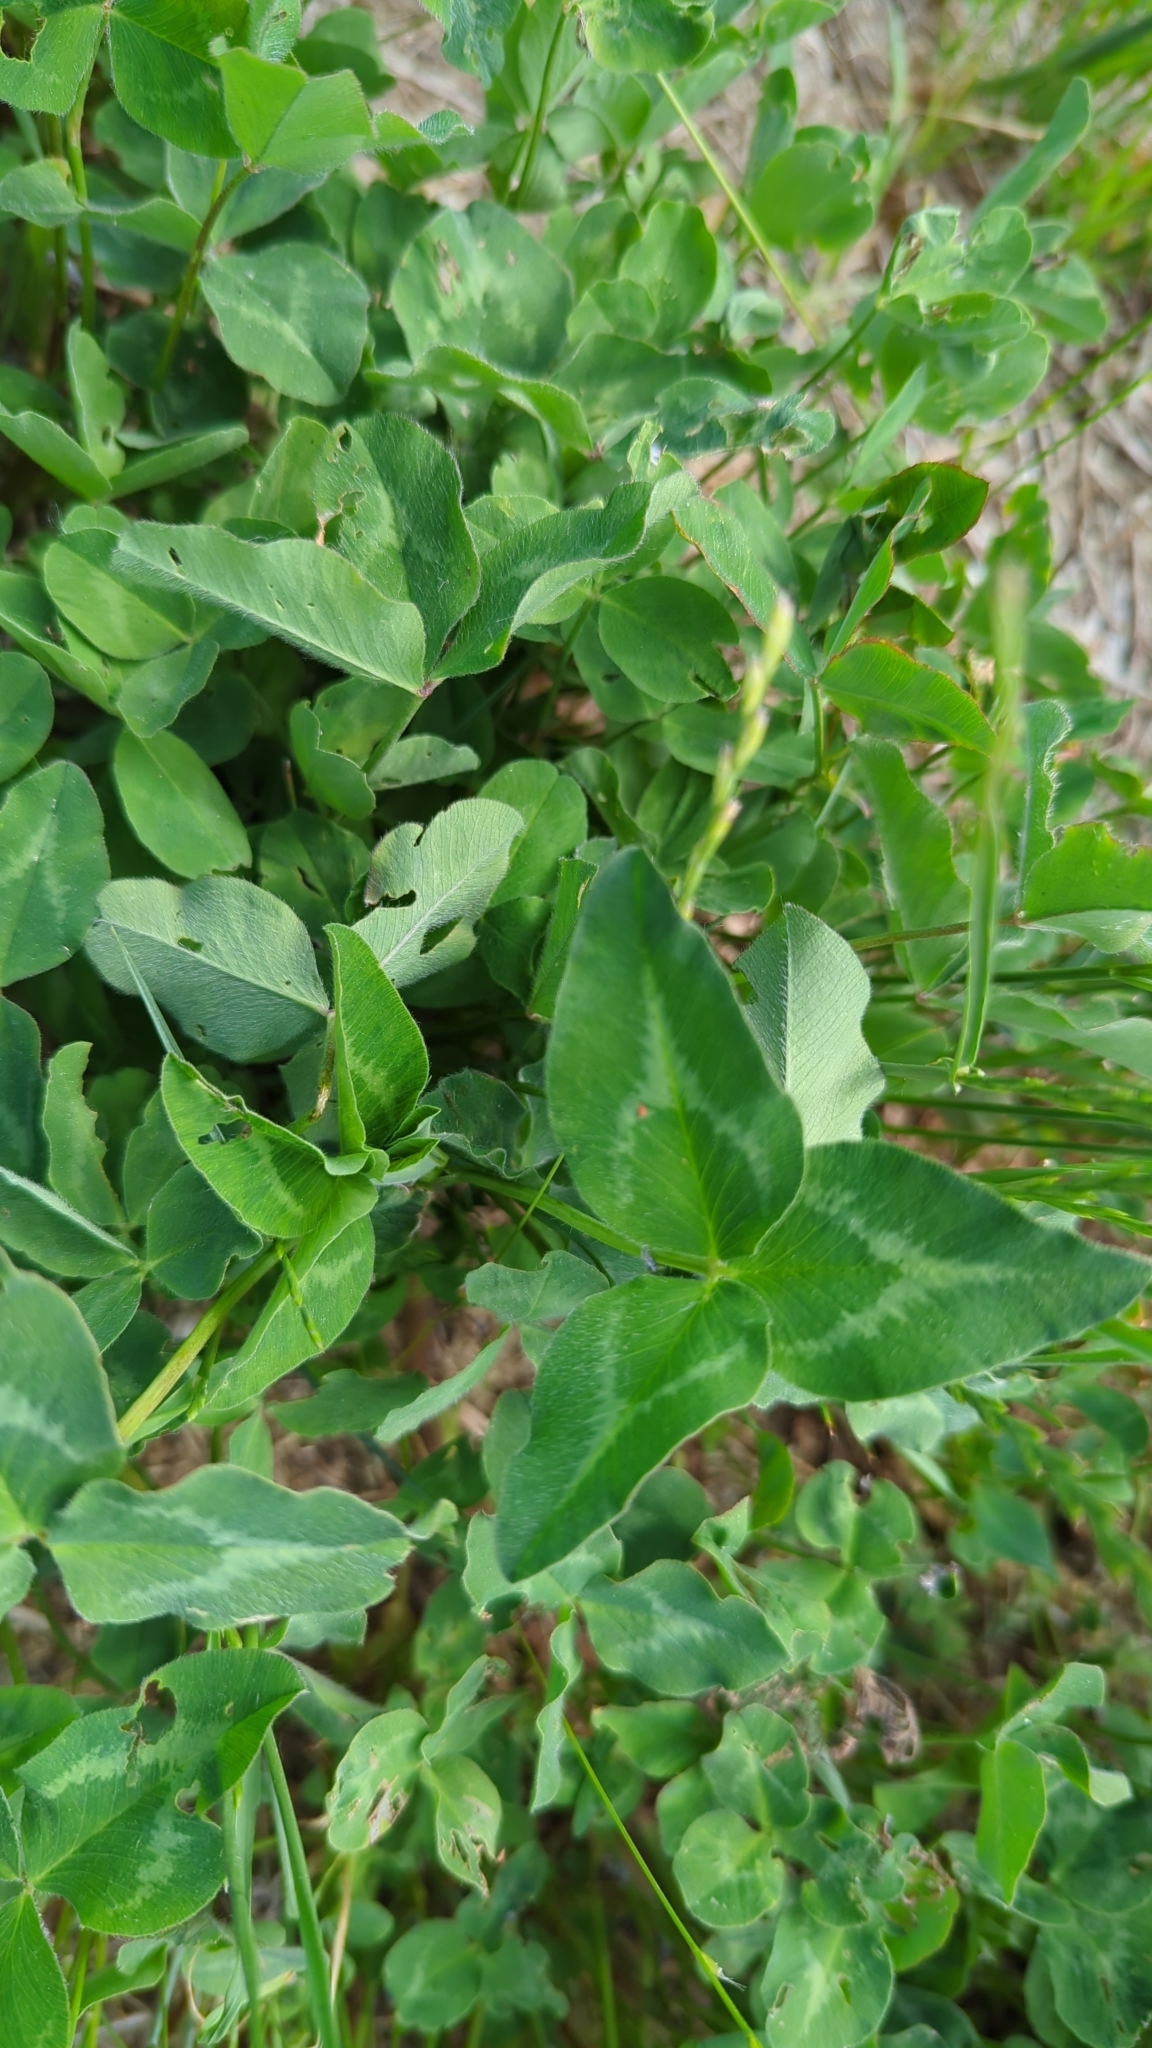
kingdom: Plantae
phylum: Tracheophyta
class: Magnoliopsida
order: Fabales
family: Fabaceae
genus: Trifolium
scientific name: Trifolium pratense
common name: Red clover
